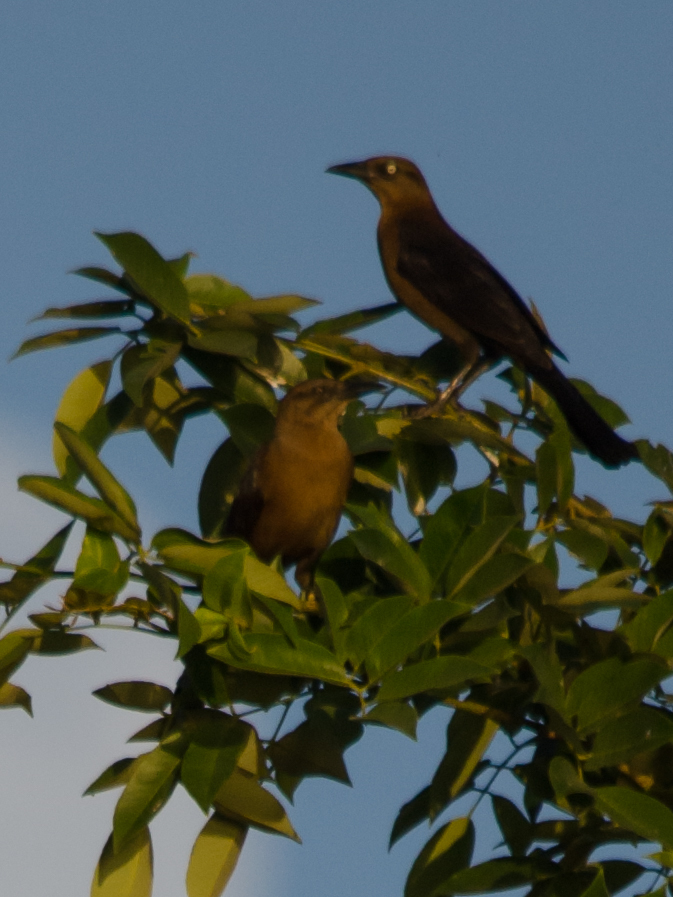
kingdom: Animalia
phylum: Chordata
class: Aves
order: Passeriformes
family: Icteridae
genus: Quiscalus
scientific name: Quiscalus mexicanus
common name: Great-tailed grackle
